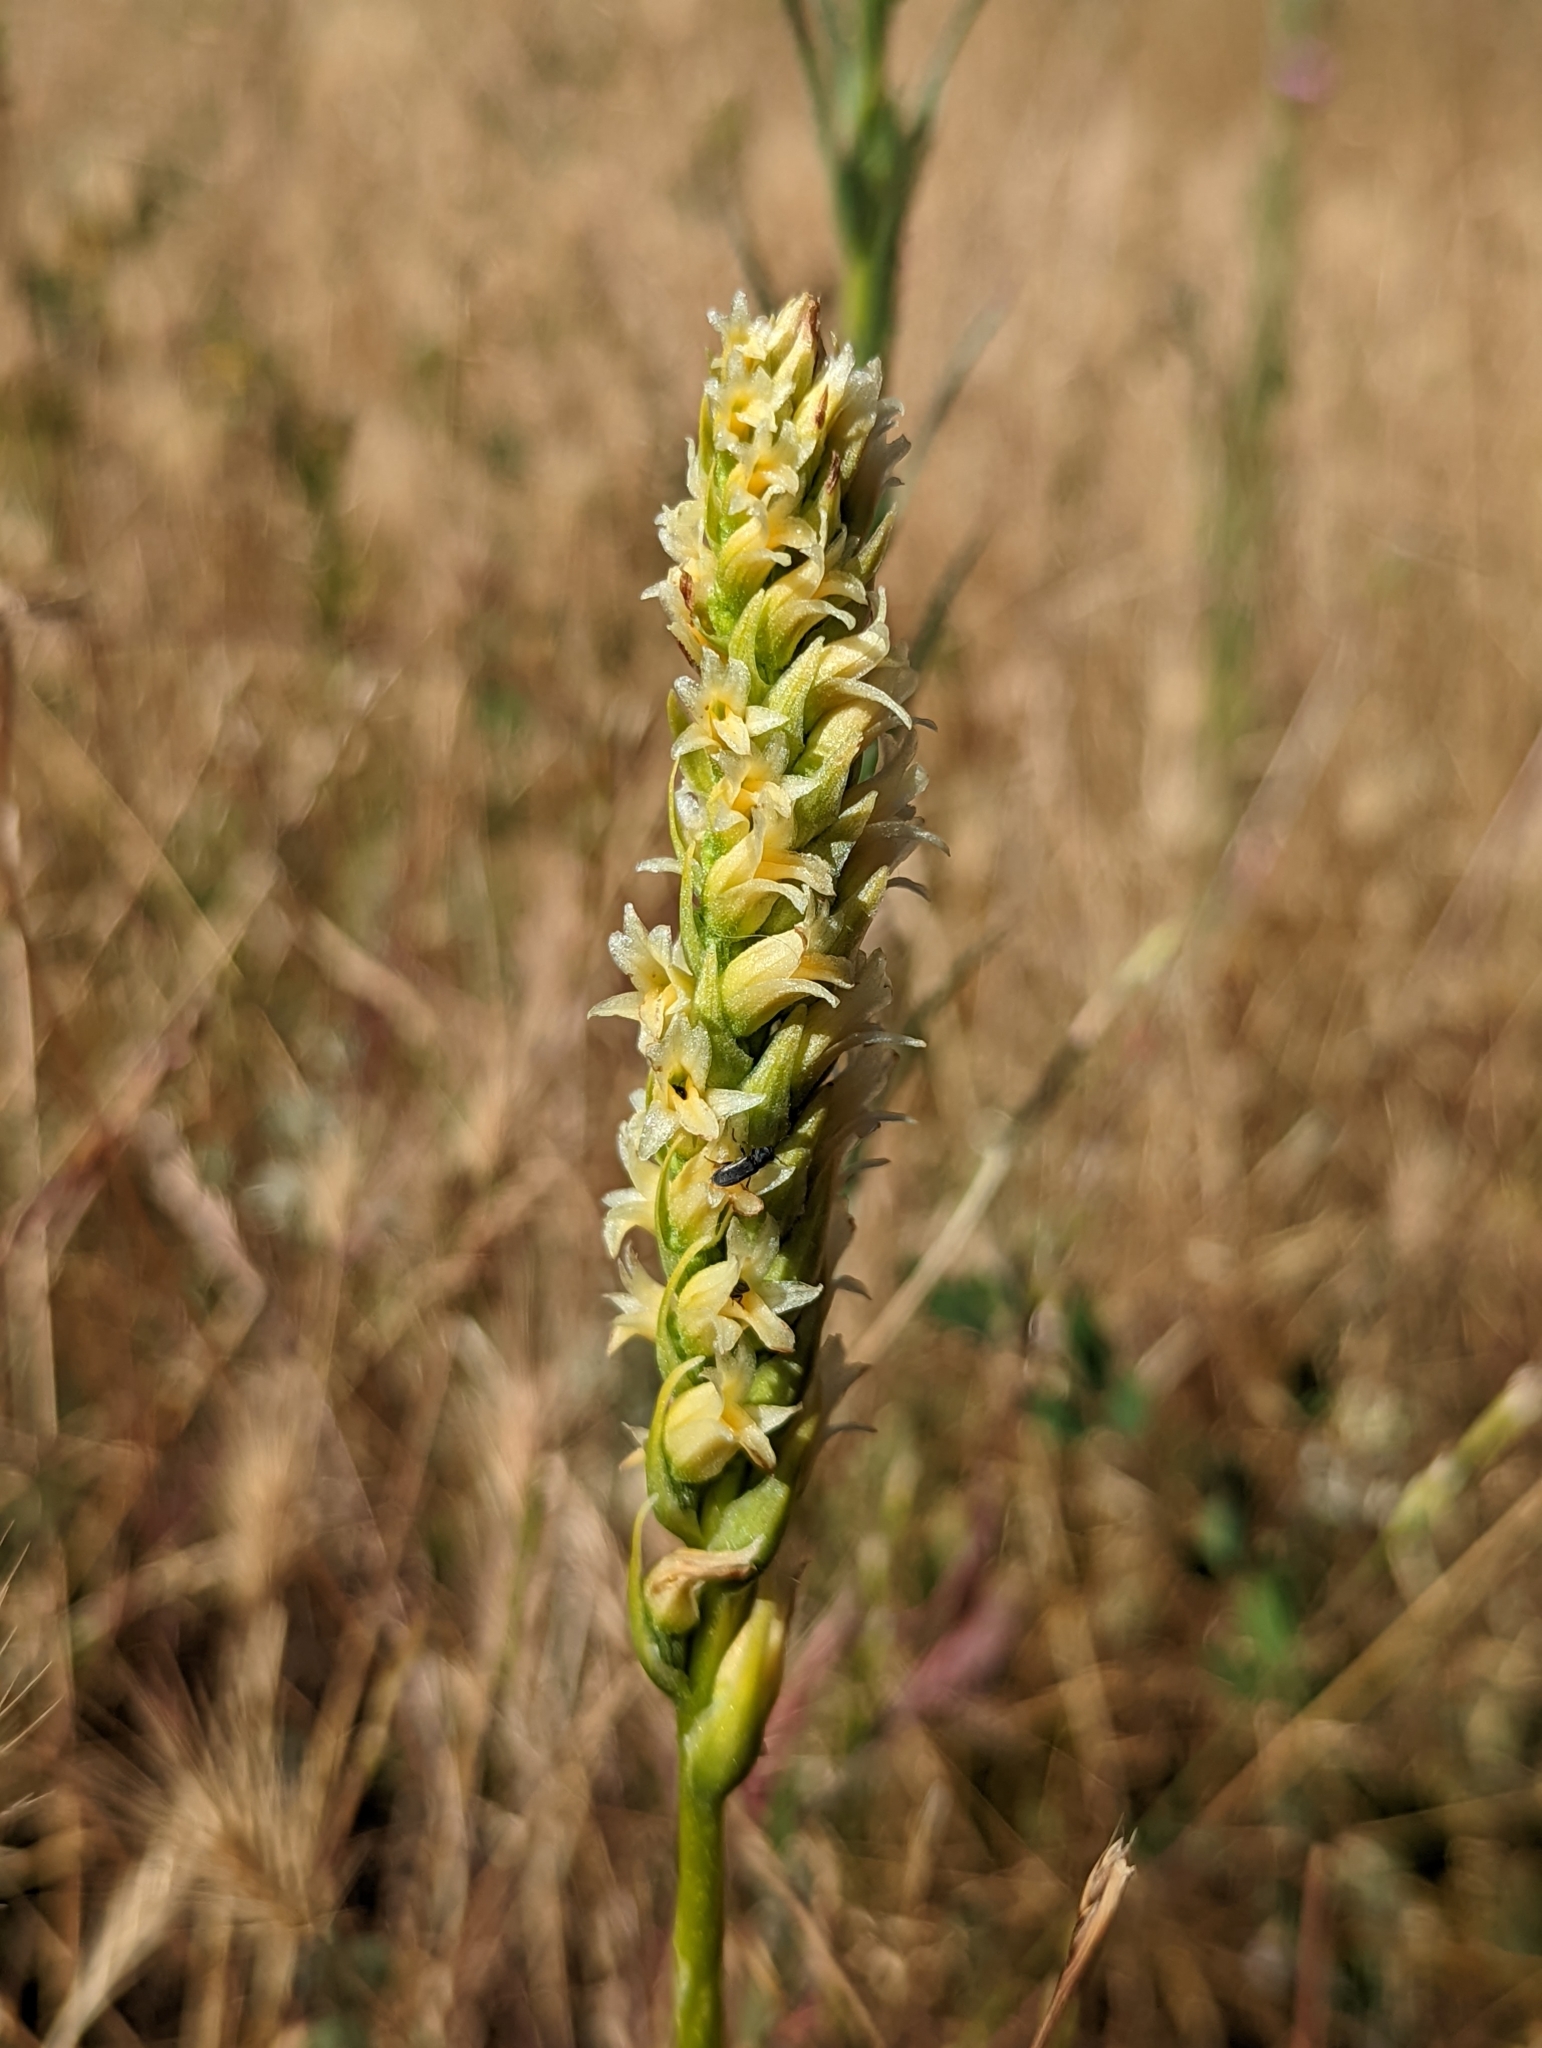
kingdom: Plantae
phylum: Tracheophyta
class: Liliopsida
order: Asparagales
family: Orchidaceae
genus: Spiranthes
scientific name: Spiranthes porrifolia
